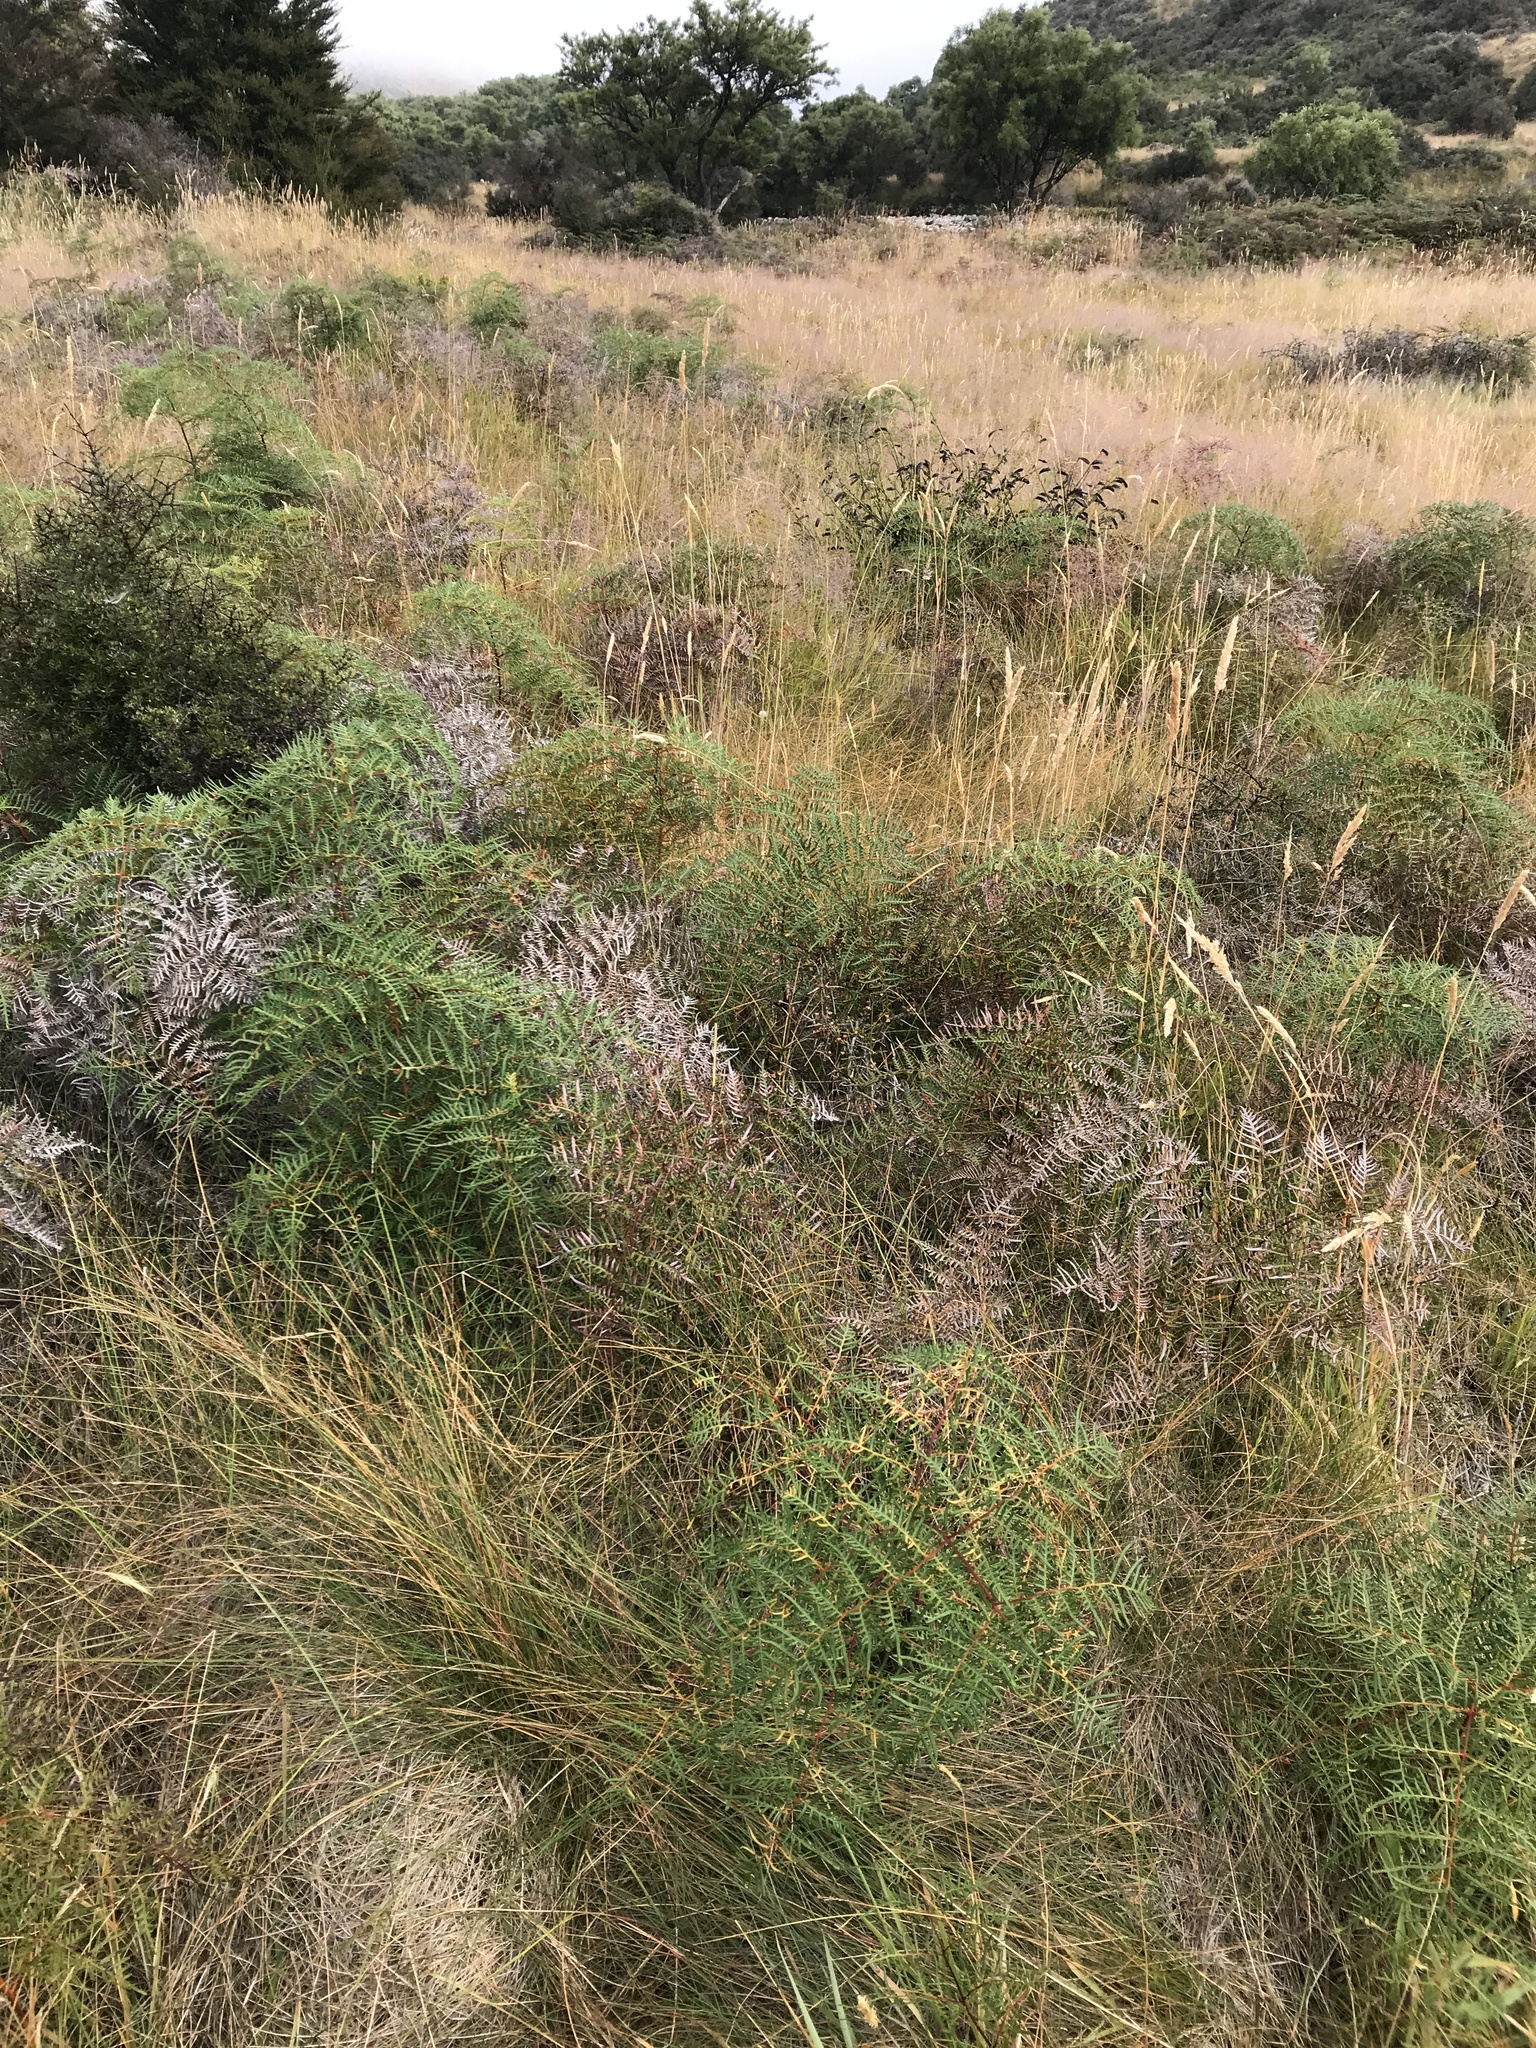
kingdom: Plantae
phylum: Tracheophyta
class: Polypodiopsida
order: Polypodiales
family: Dennstaedtiaceae
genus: Pteridium
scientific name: Pteridium esculentum
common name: Bracken fern
